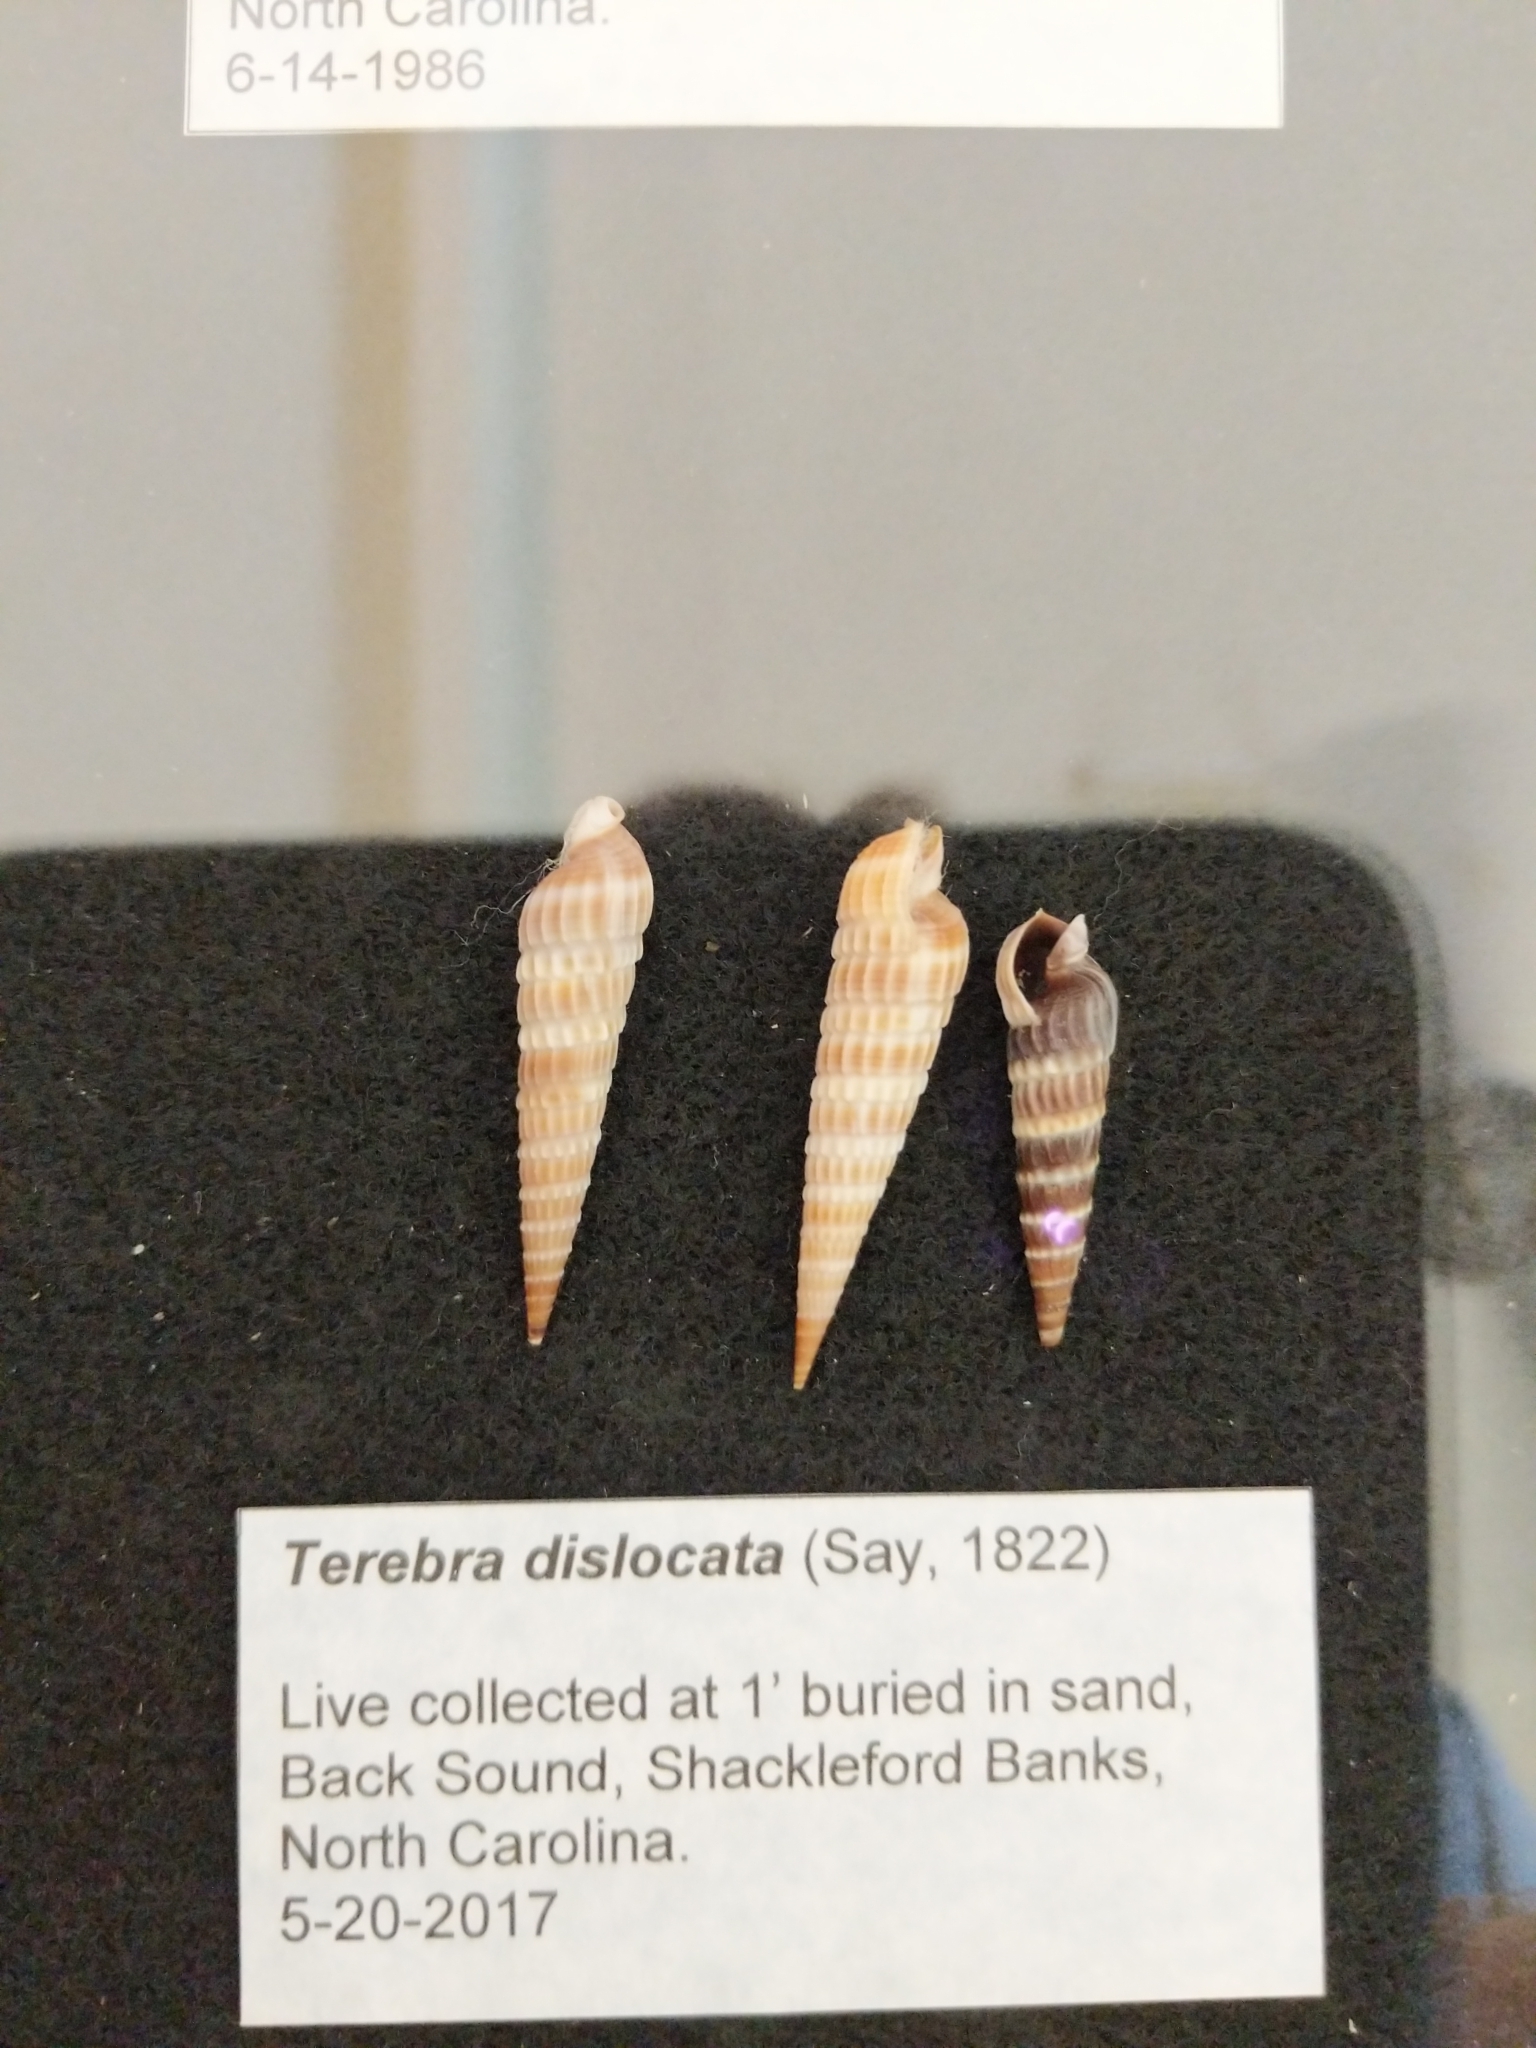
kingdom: Animalia
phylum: Mollusca
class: Gastropoda
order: Neogastropoda
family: Terebridae
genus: Neoterebra
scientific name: Neoterebra dislocata
